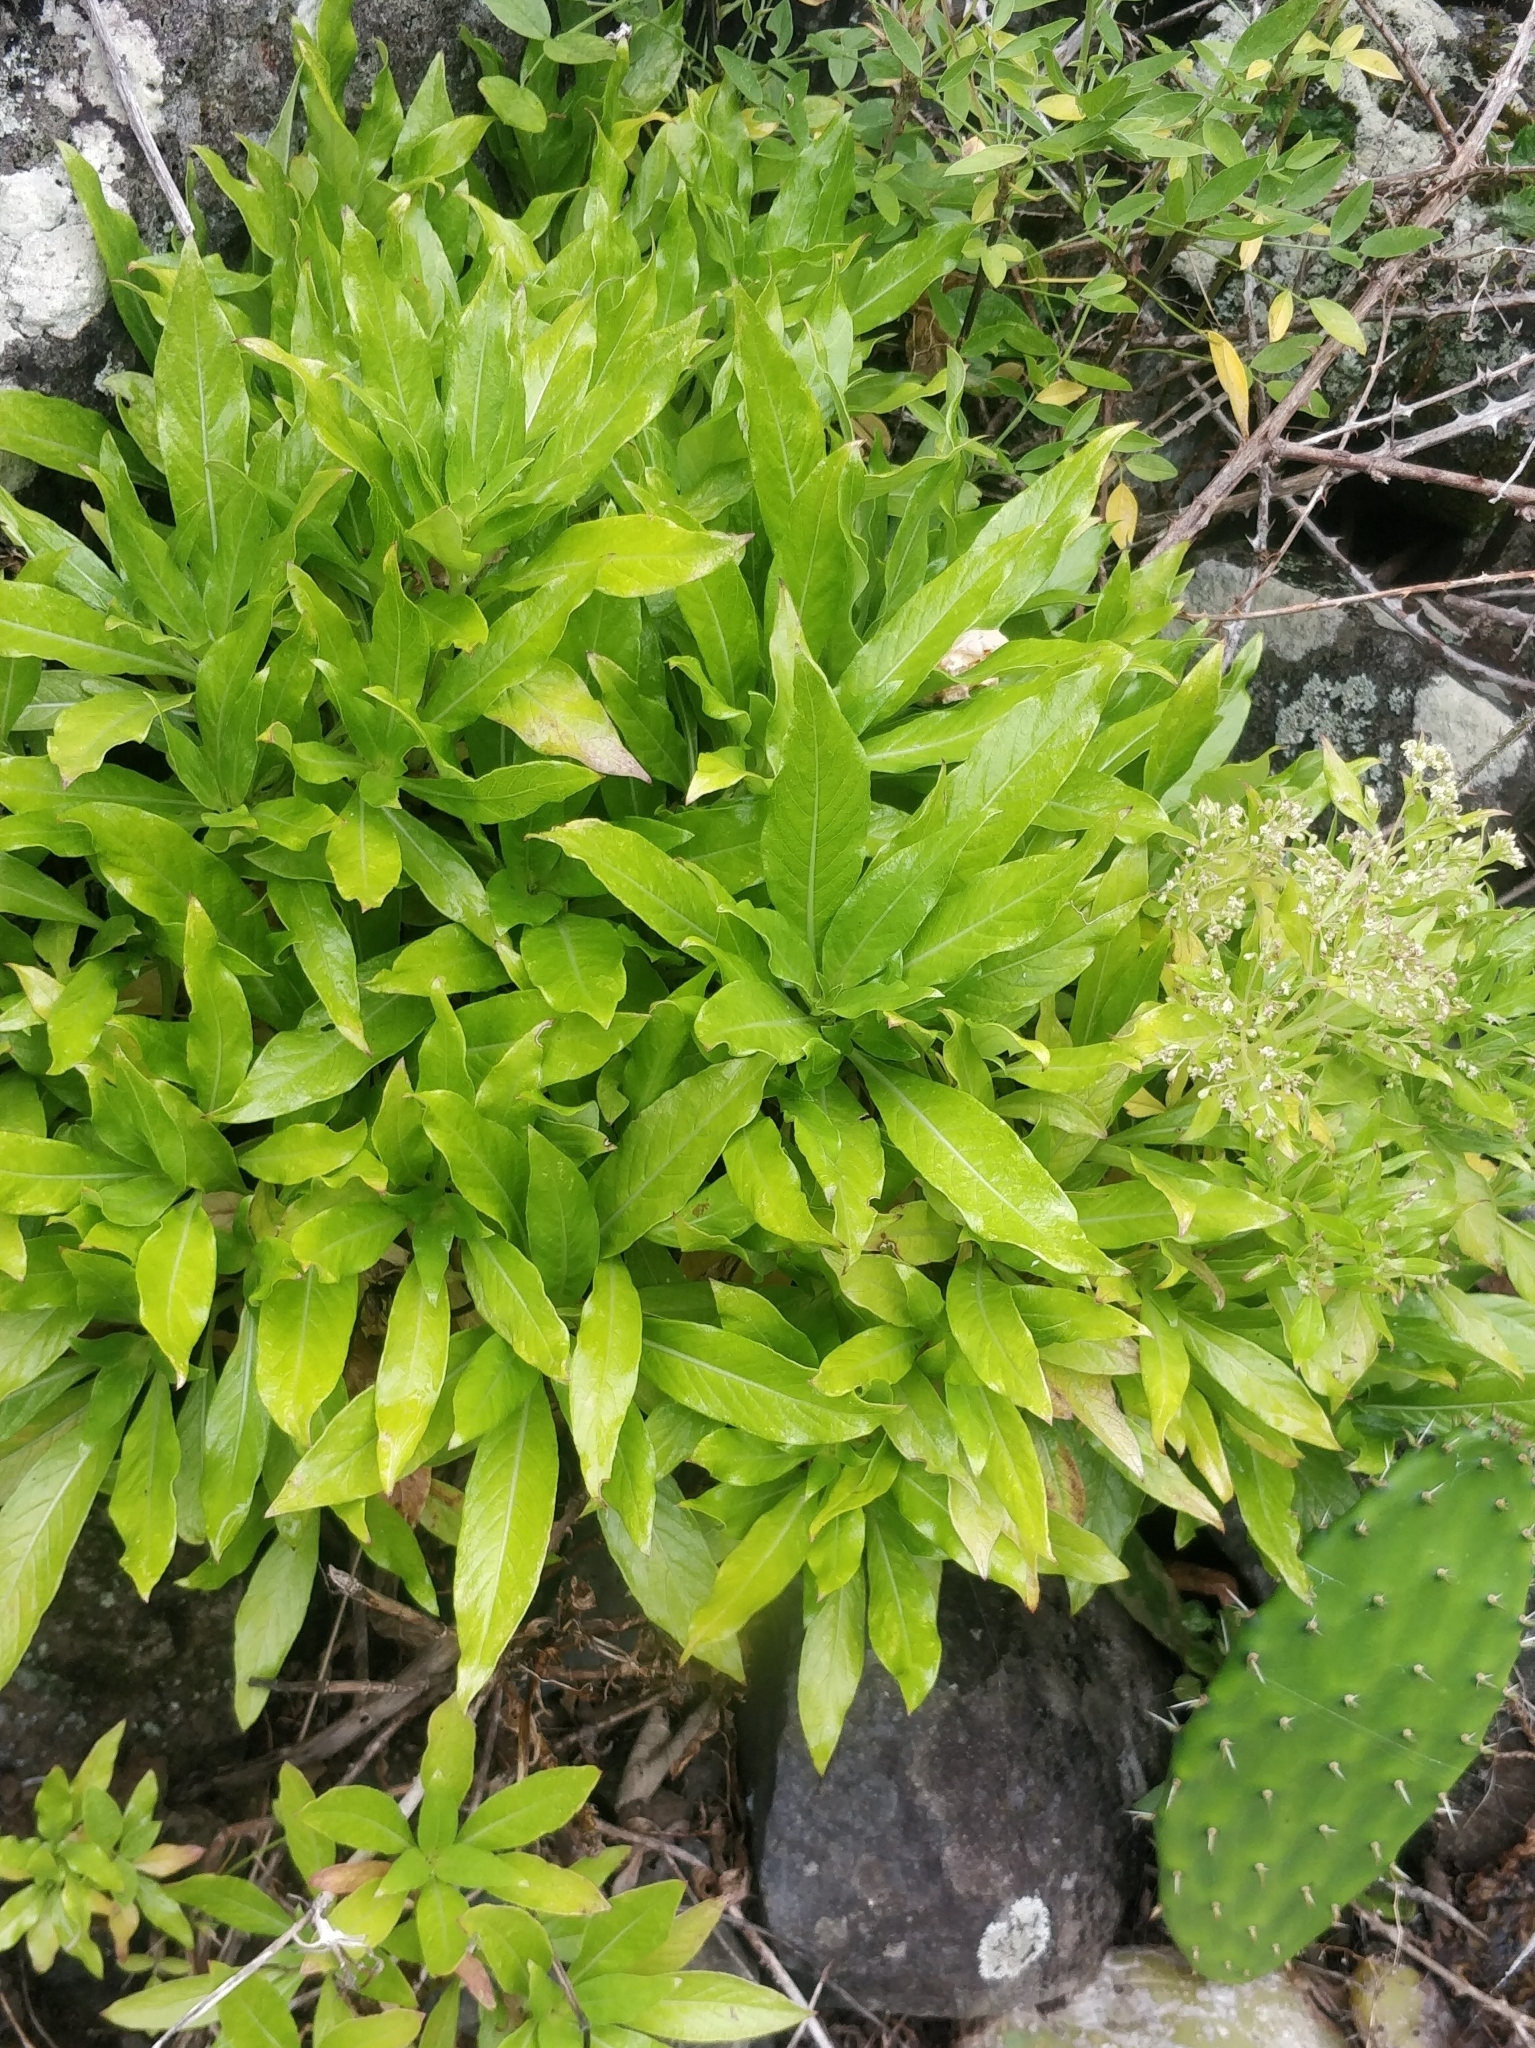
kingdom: Plantae
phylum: Tracheophyta
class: Magnoliopsida
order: Gentianales
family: Rubiaceae
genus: Phyllis
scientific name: Phyllis nobla
